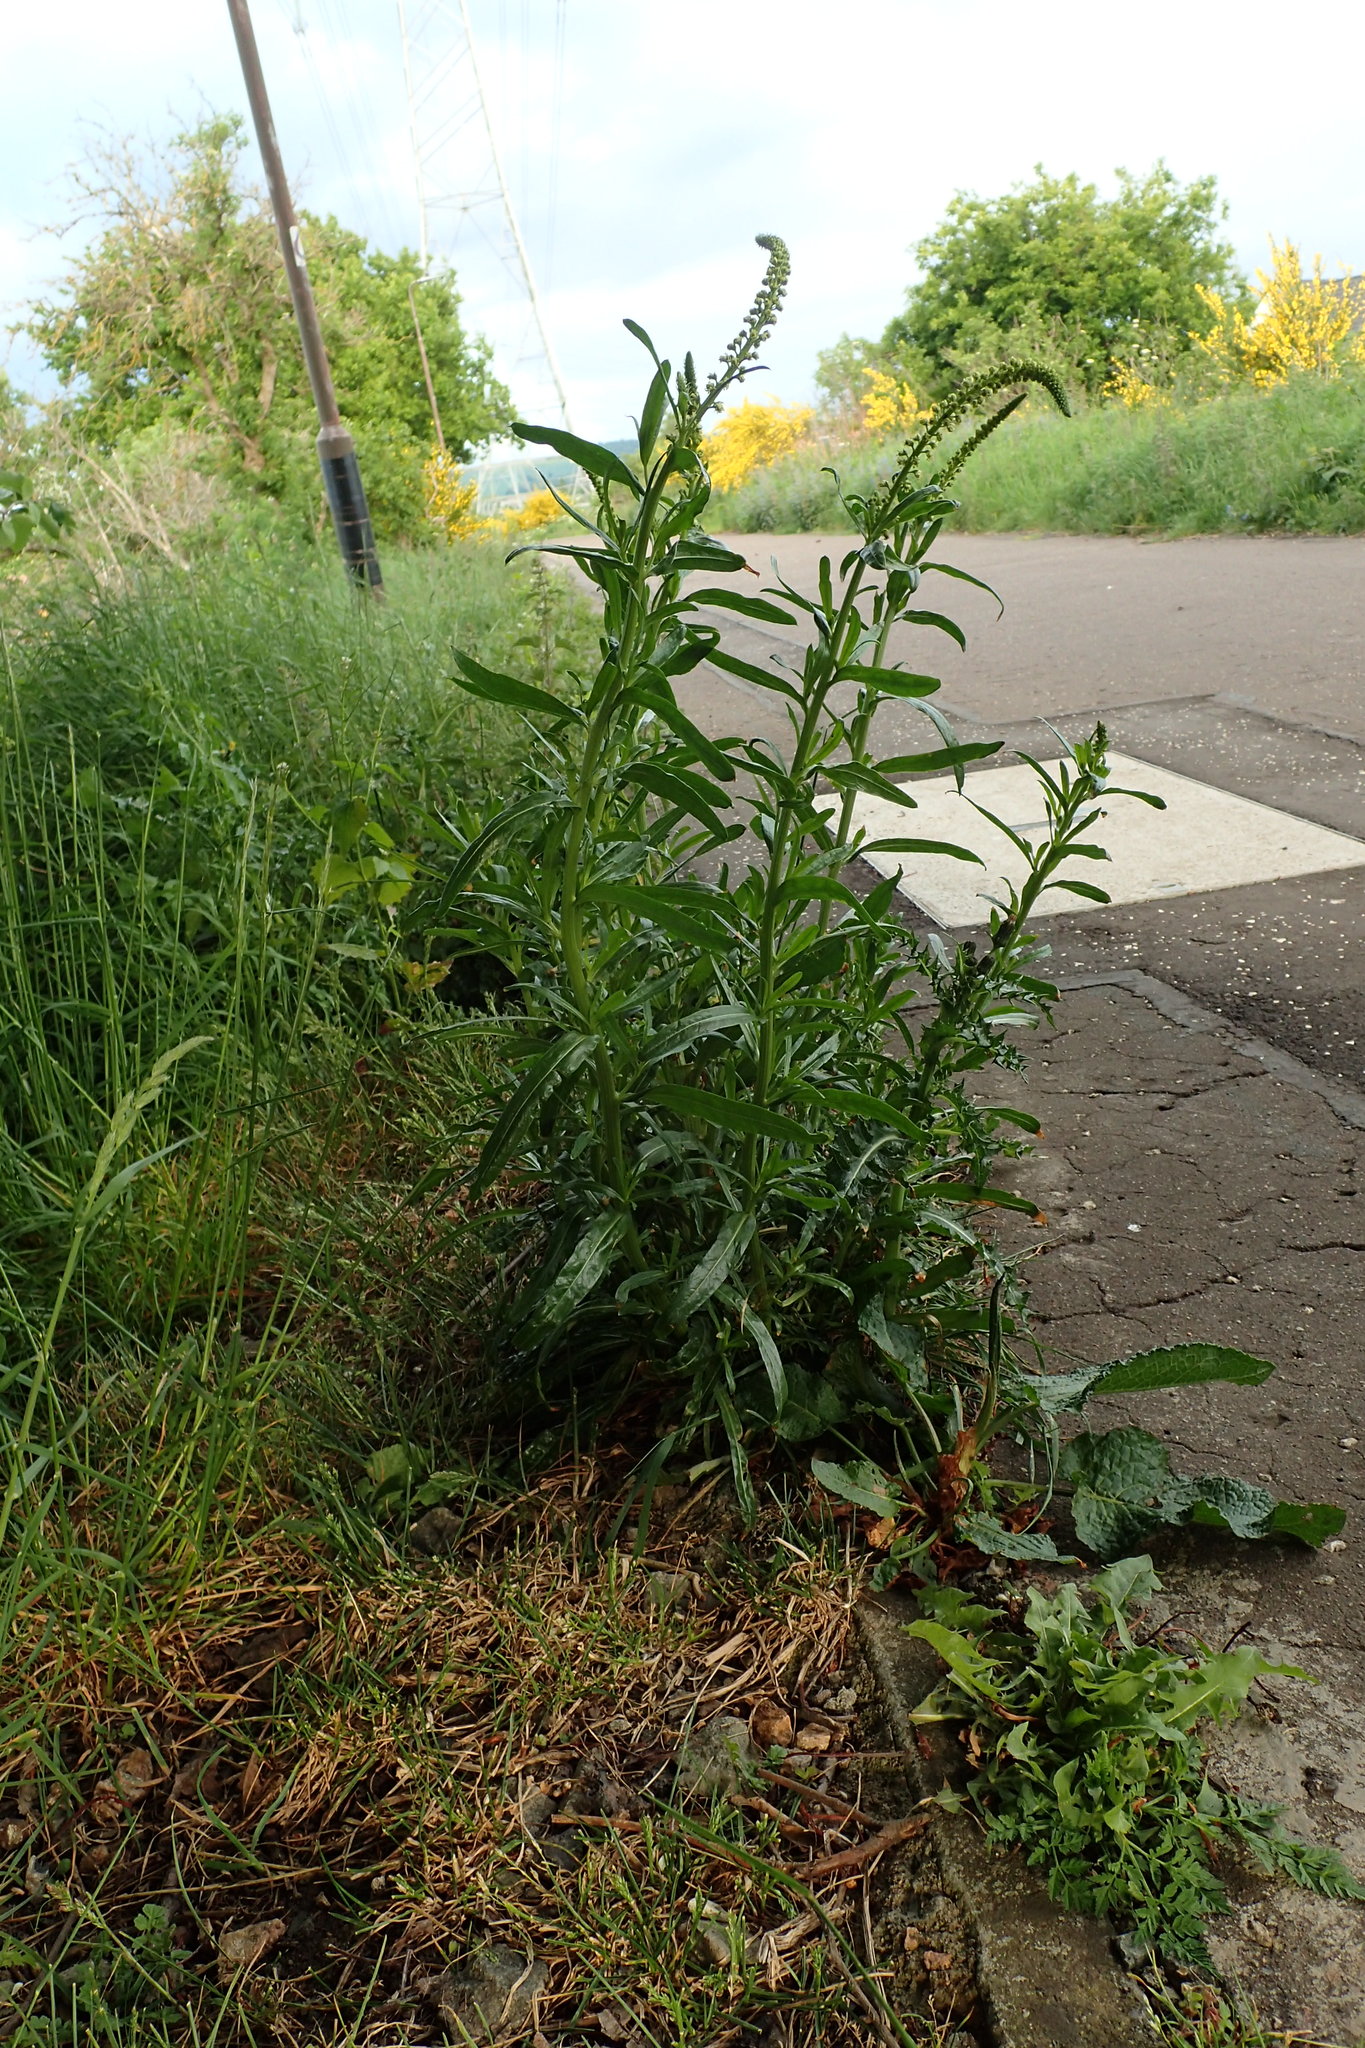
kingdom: Plantae
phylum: Tracheophyta
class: Magnoliopsida
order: Brassicales
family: Resedaceae
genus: Reseda
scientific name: Reseda luteola
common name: Weld
